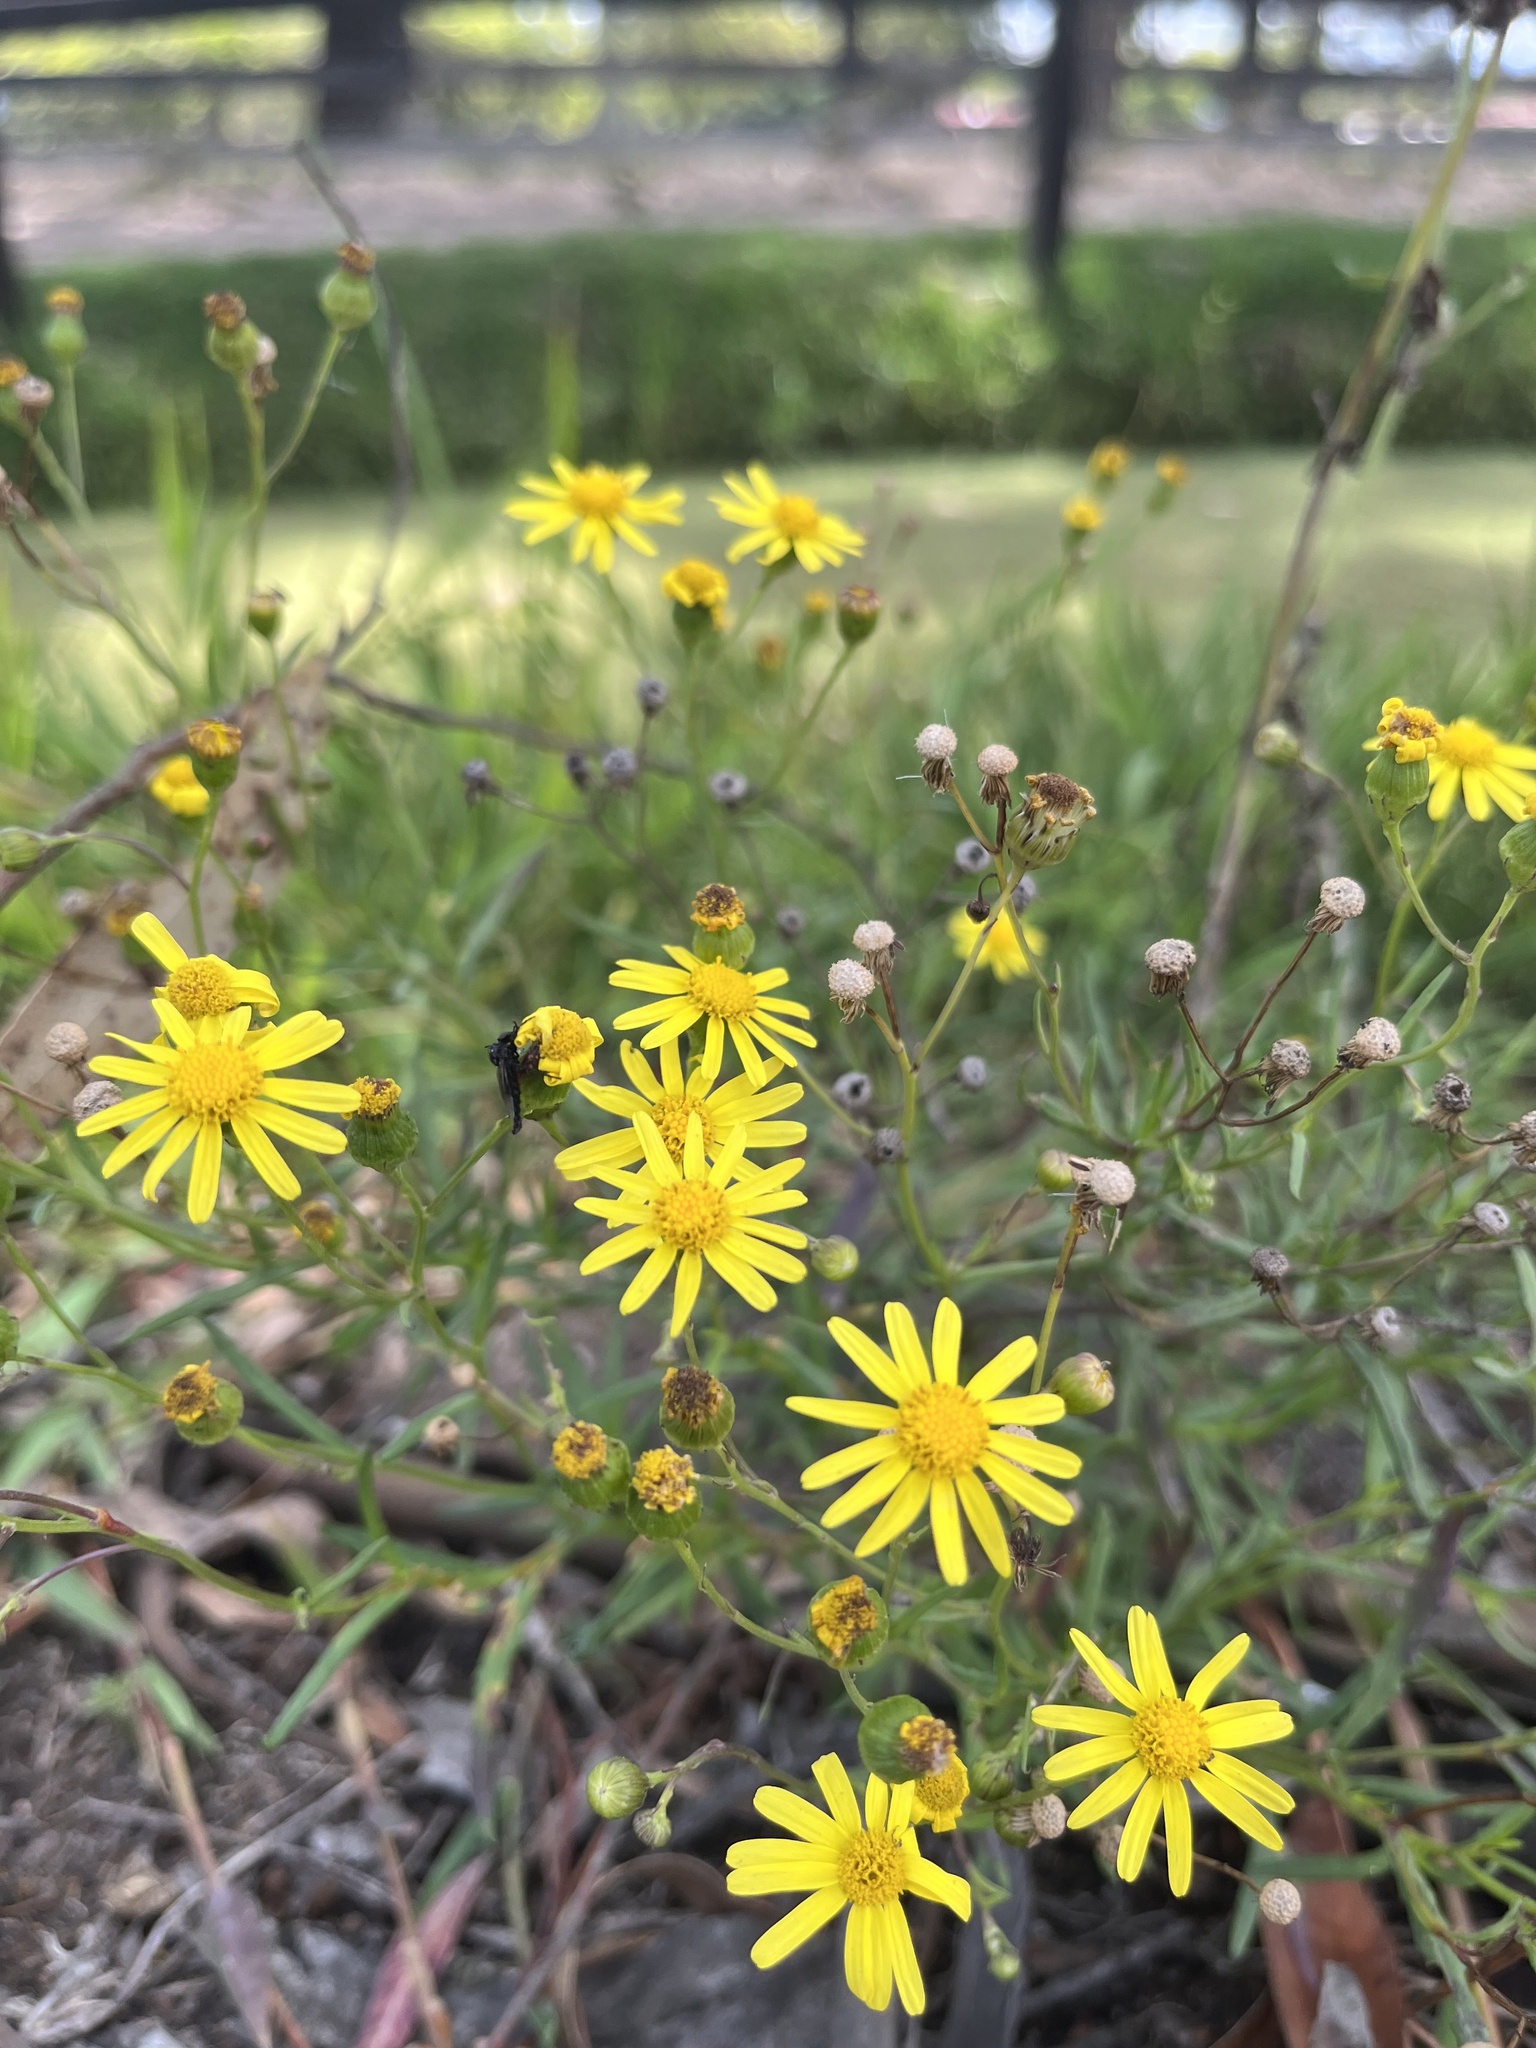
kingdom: Plantae
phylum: Tracheophyta
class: Magnoliopsida
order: Asterales
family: Asteraceae
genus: Senecio
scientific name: Senecio madagascariensis
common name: Madagascar ragwort
